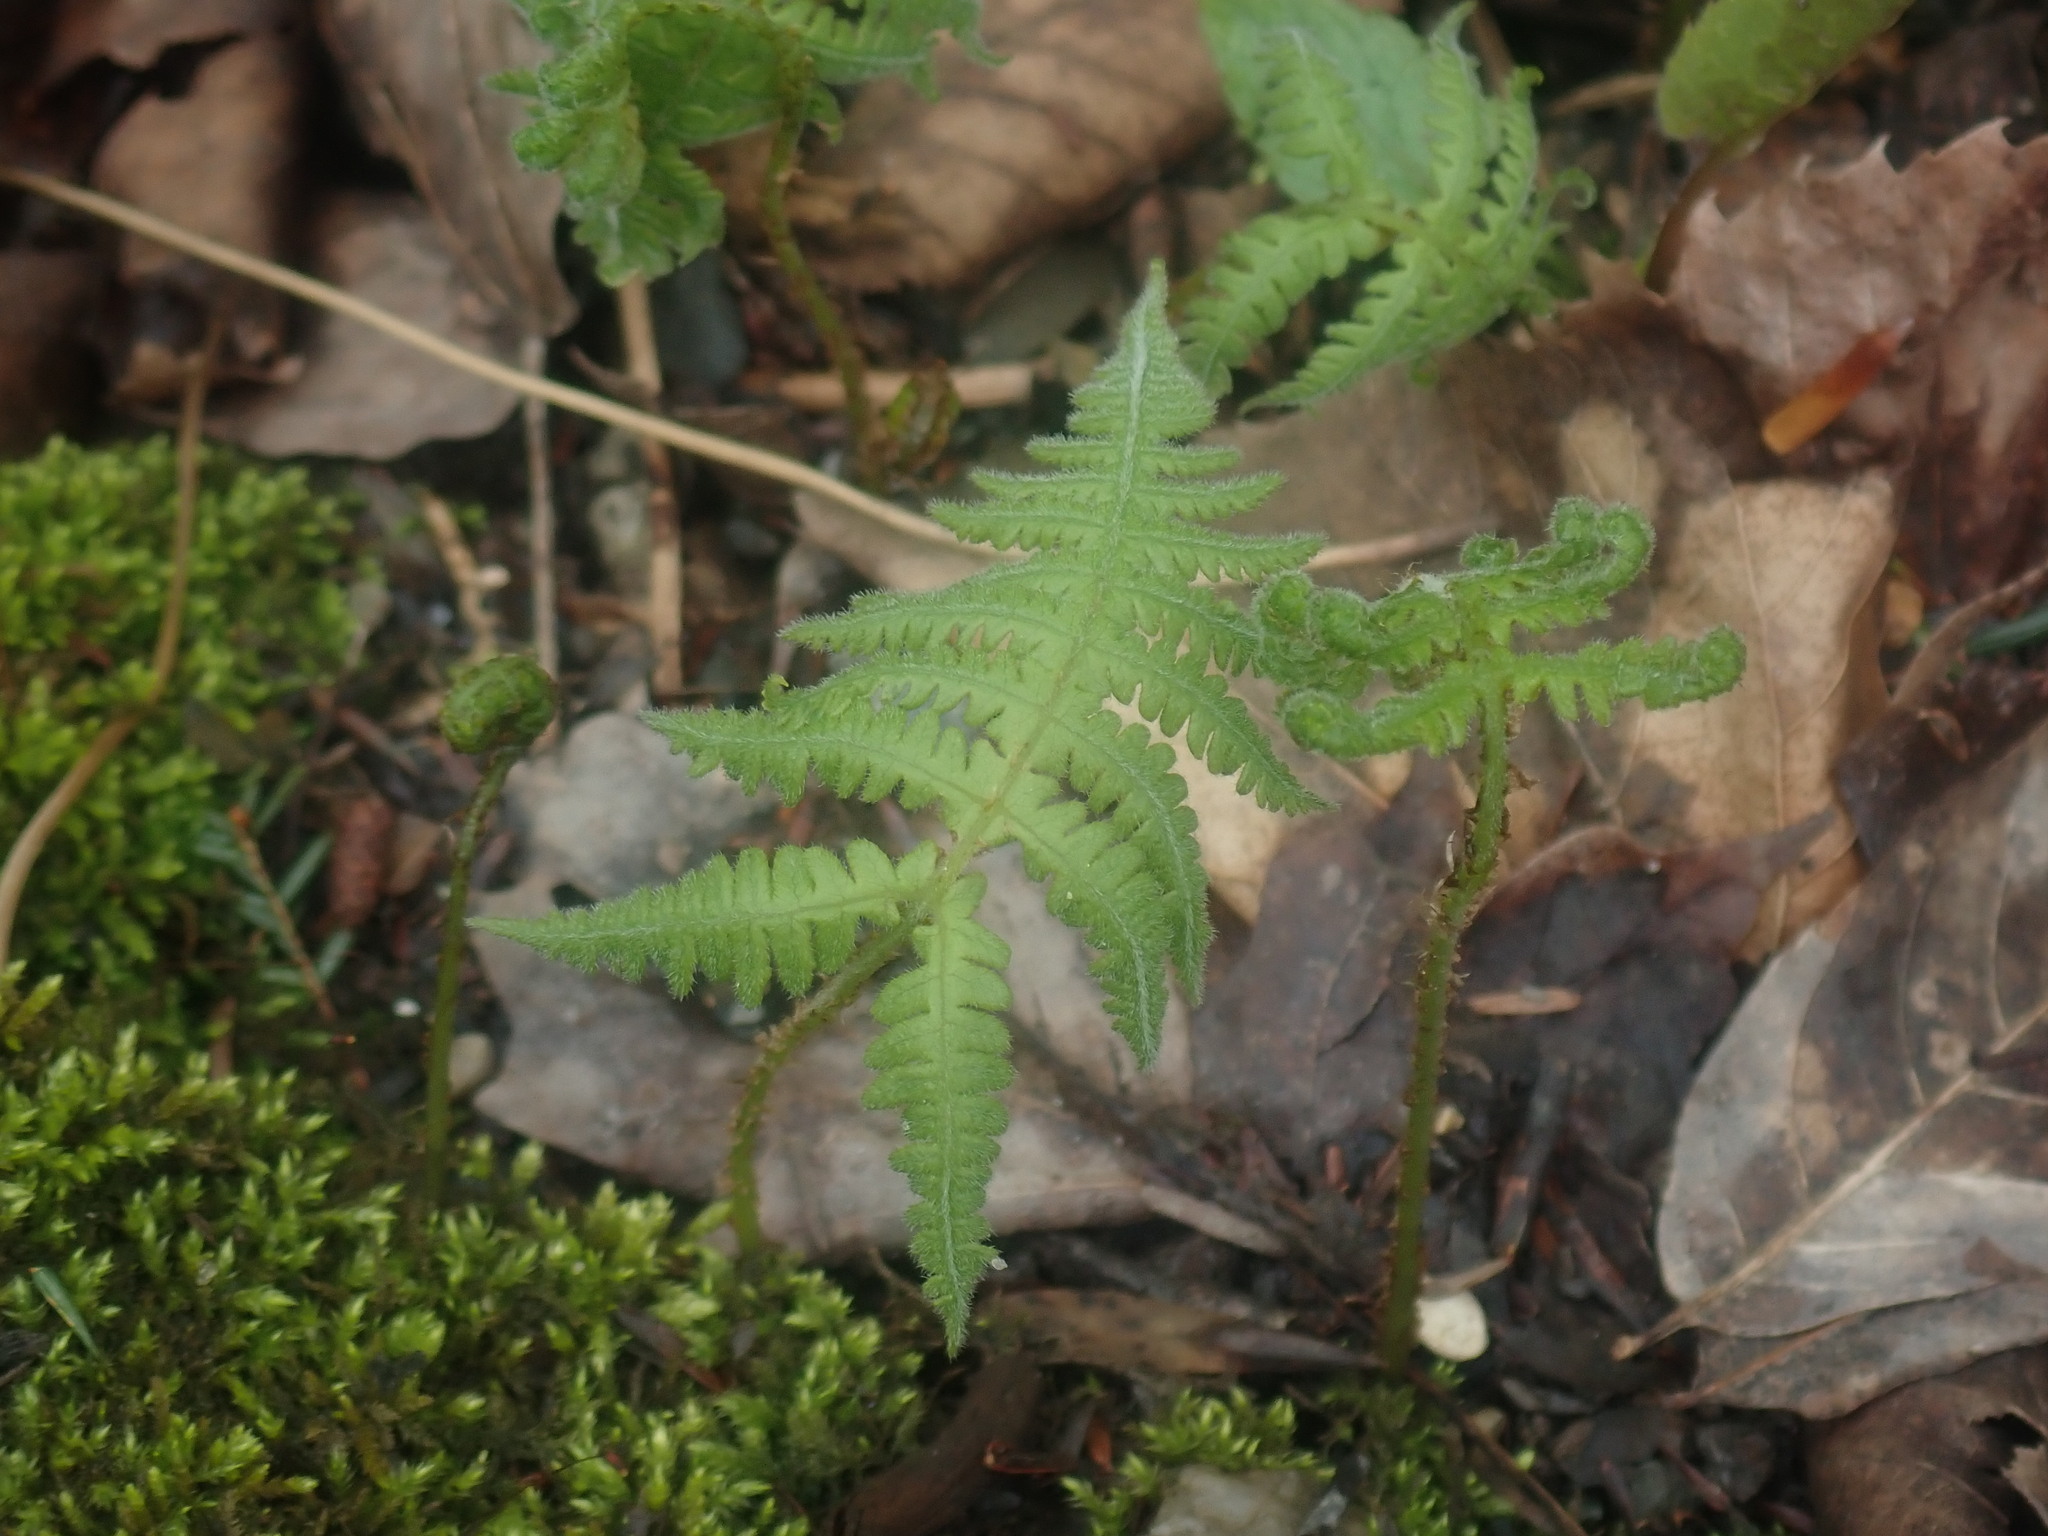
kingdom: Plantae
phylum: Tracheophyta
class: Polypodiopsida
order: Polypodiales
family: Thelypteridaceae
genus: Phegopteris
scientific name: Phegopteris connectilis
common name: Beech fern
